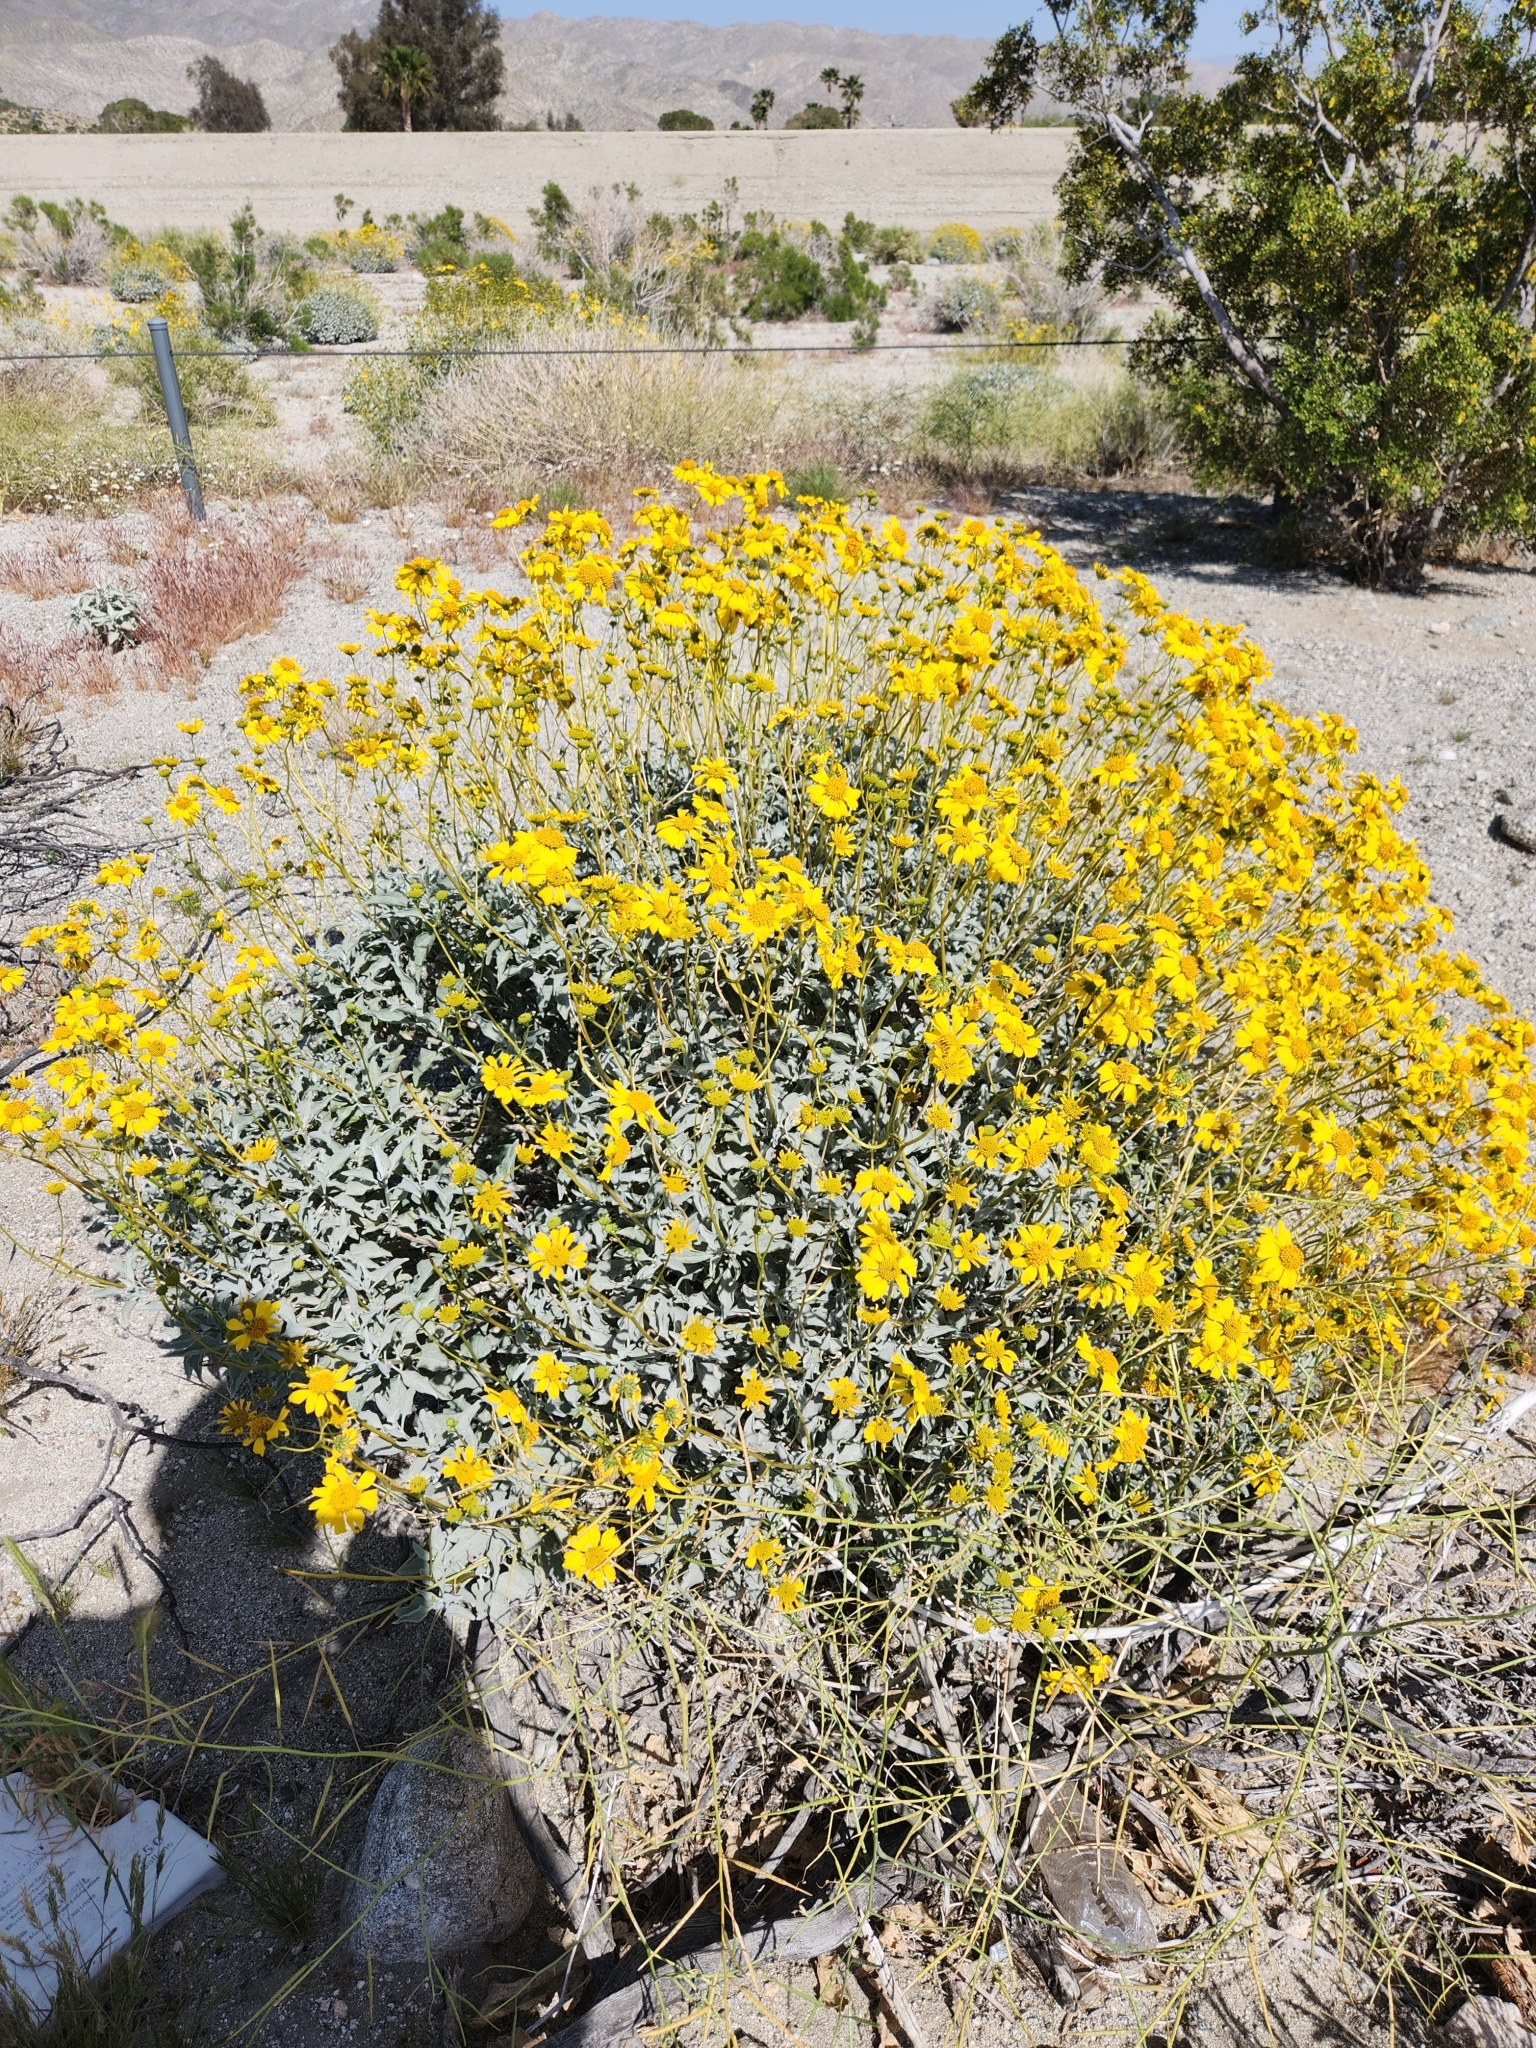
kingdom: Plantae
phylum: Tracheophyta
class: Magnoliopsida
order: Asterales
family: Asteraceae
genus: Encelia
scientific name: Encelia farinosa
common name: Brittlebush
